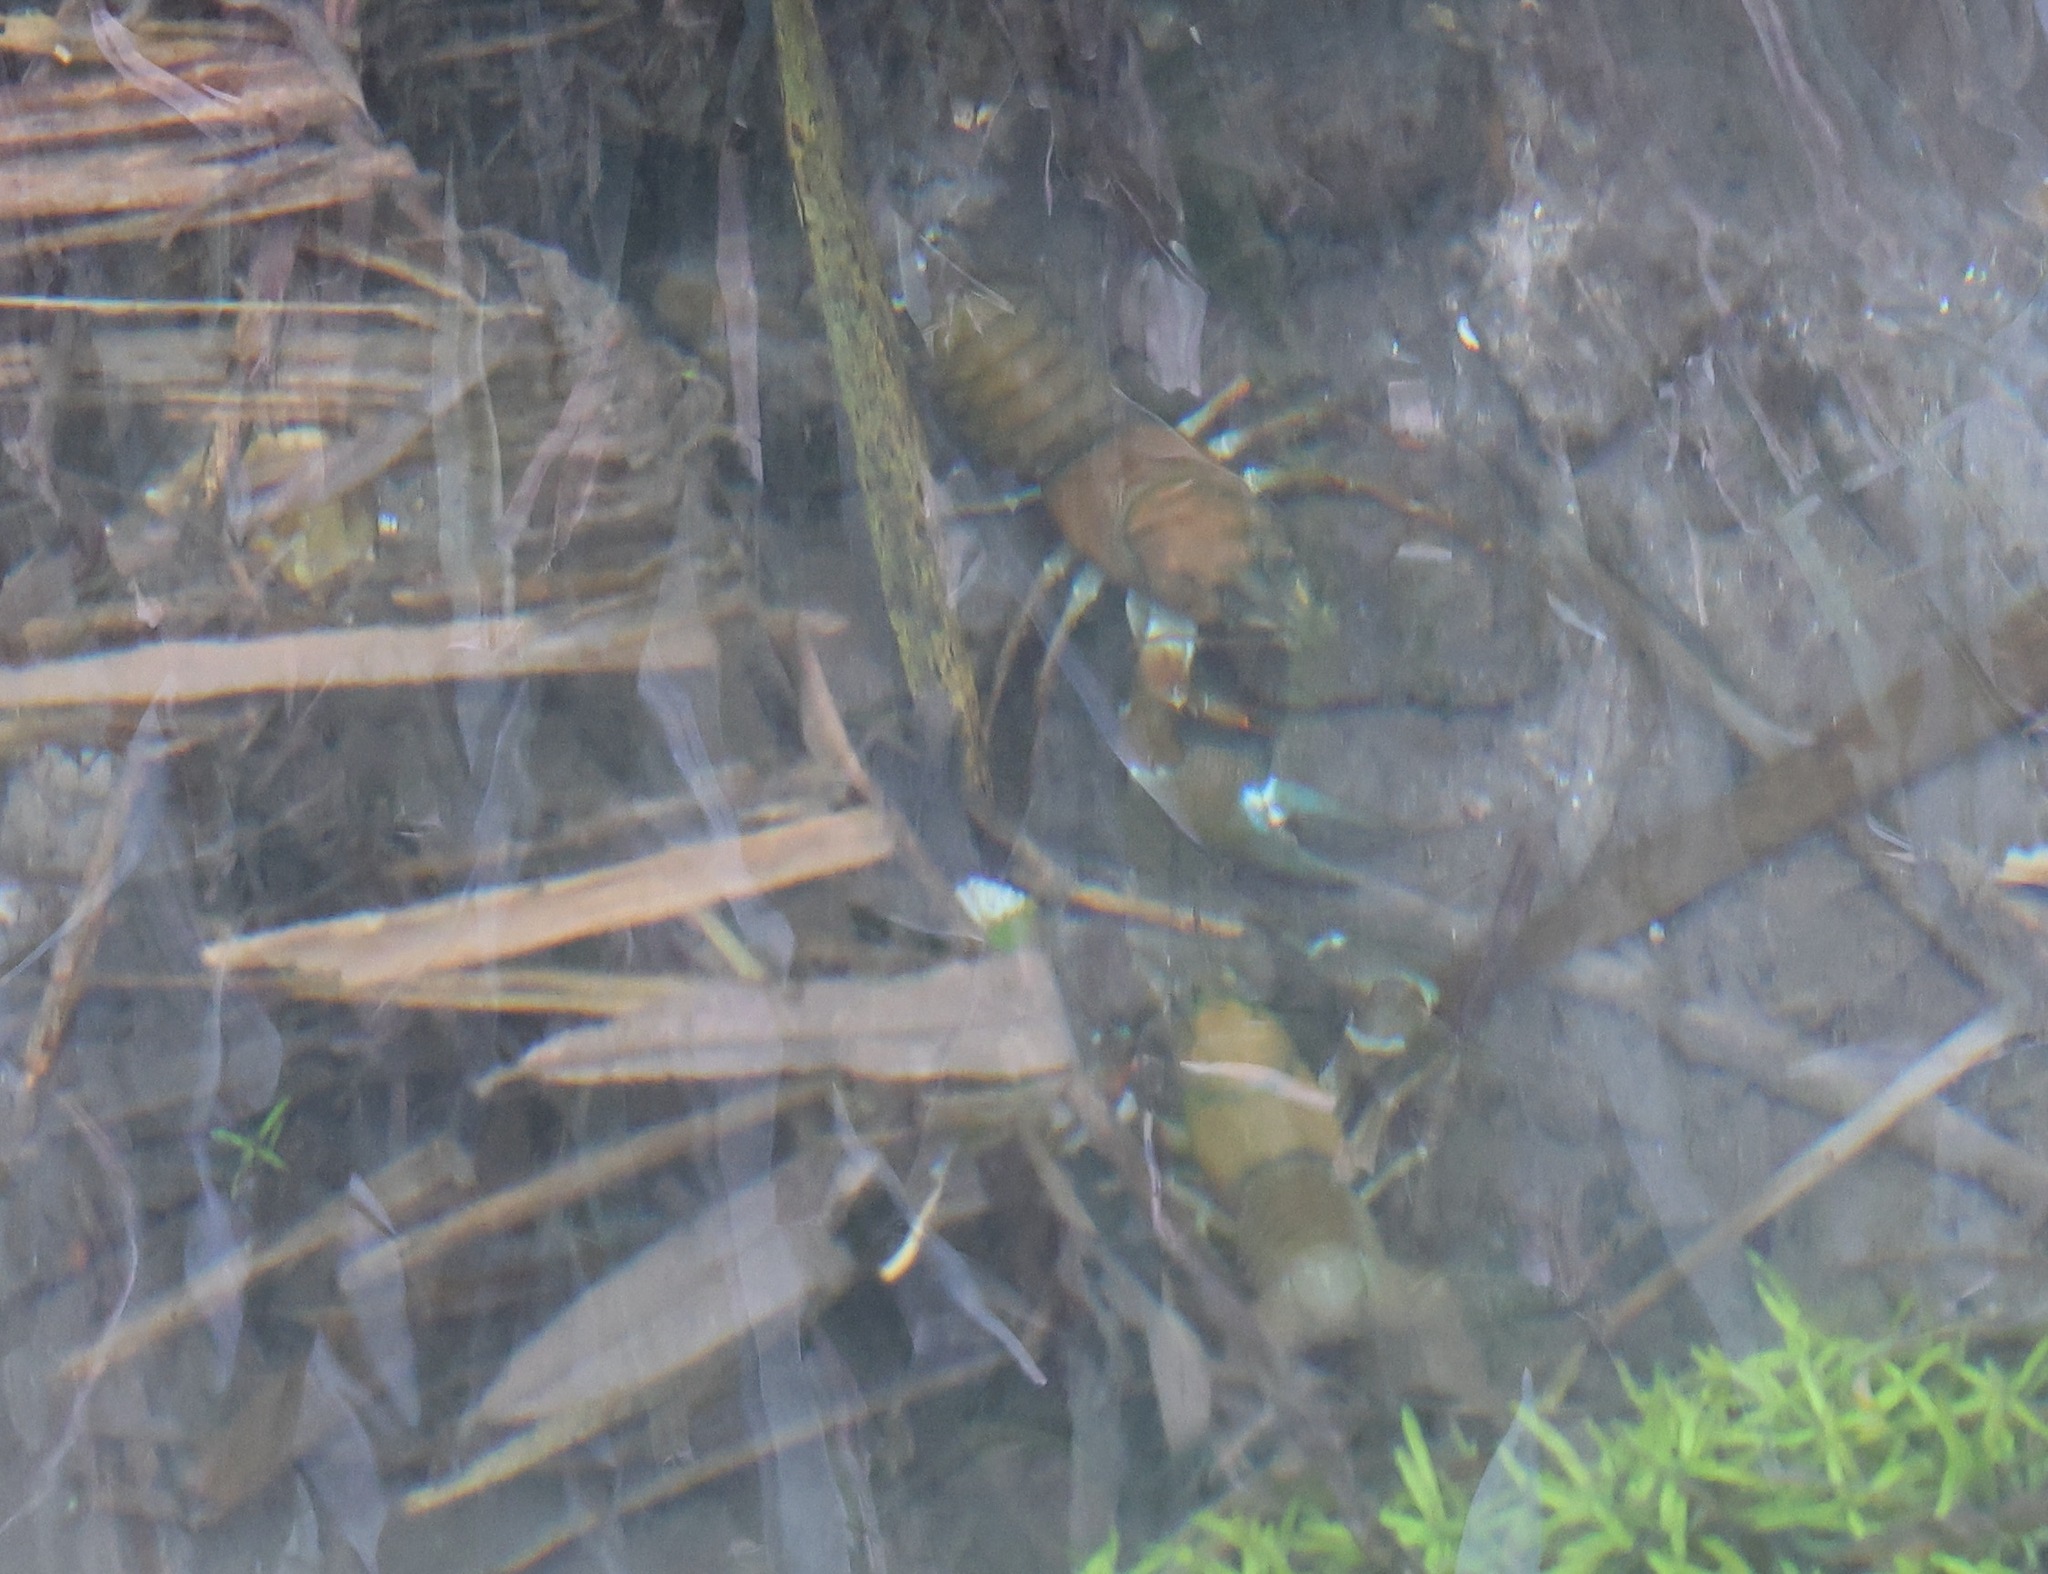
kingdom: Animalia
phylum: Arthropoda
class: Malacostraca
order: Decapoda
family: Astacidae
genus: Pacifastacus
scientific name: Pacifastacus leniusculus
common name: Signal crayfish
